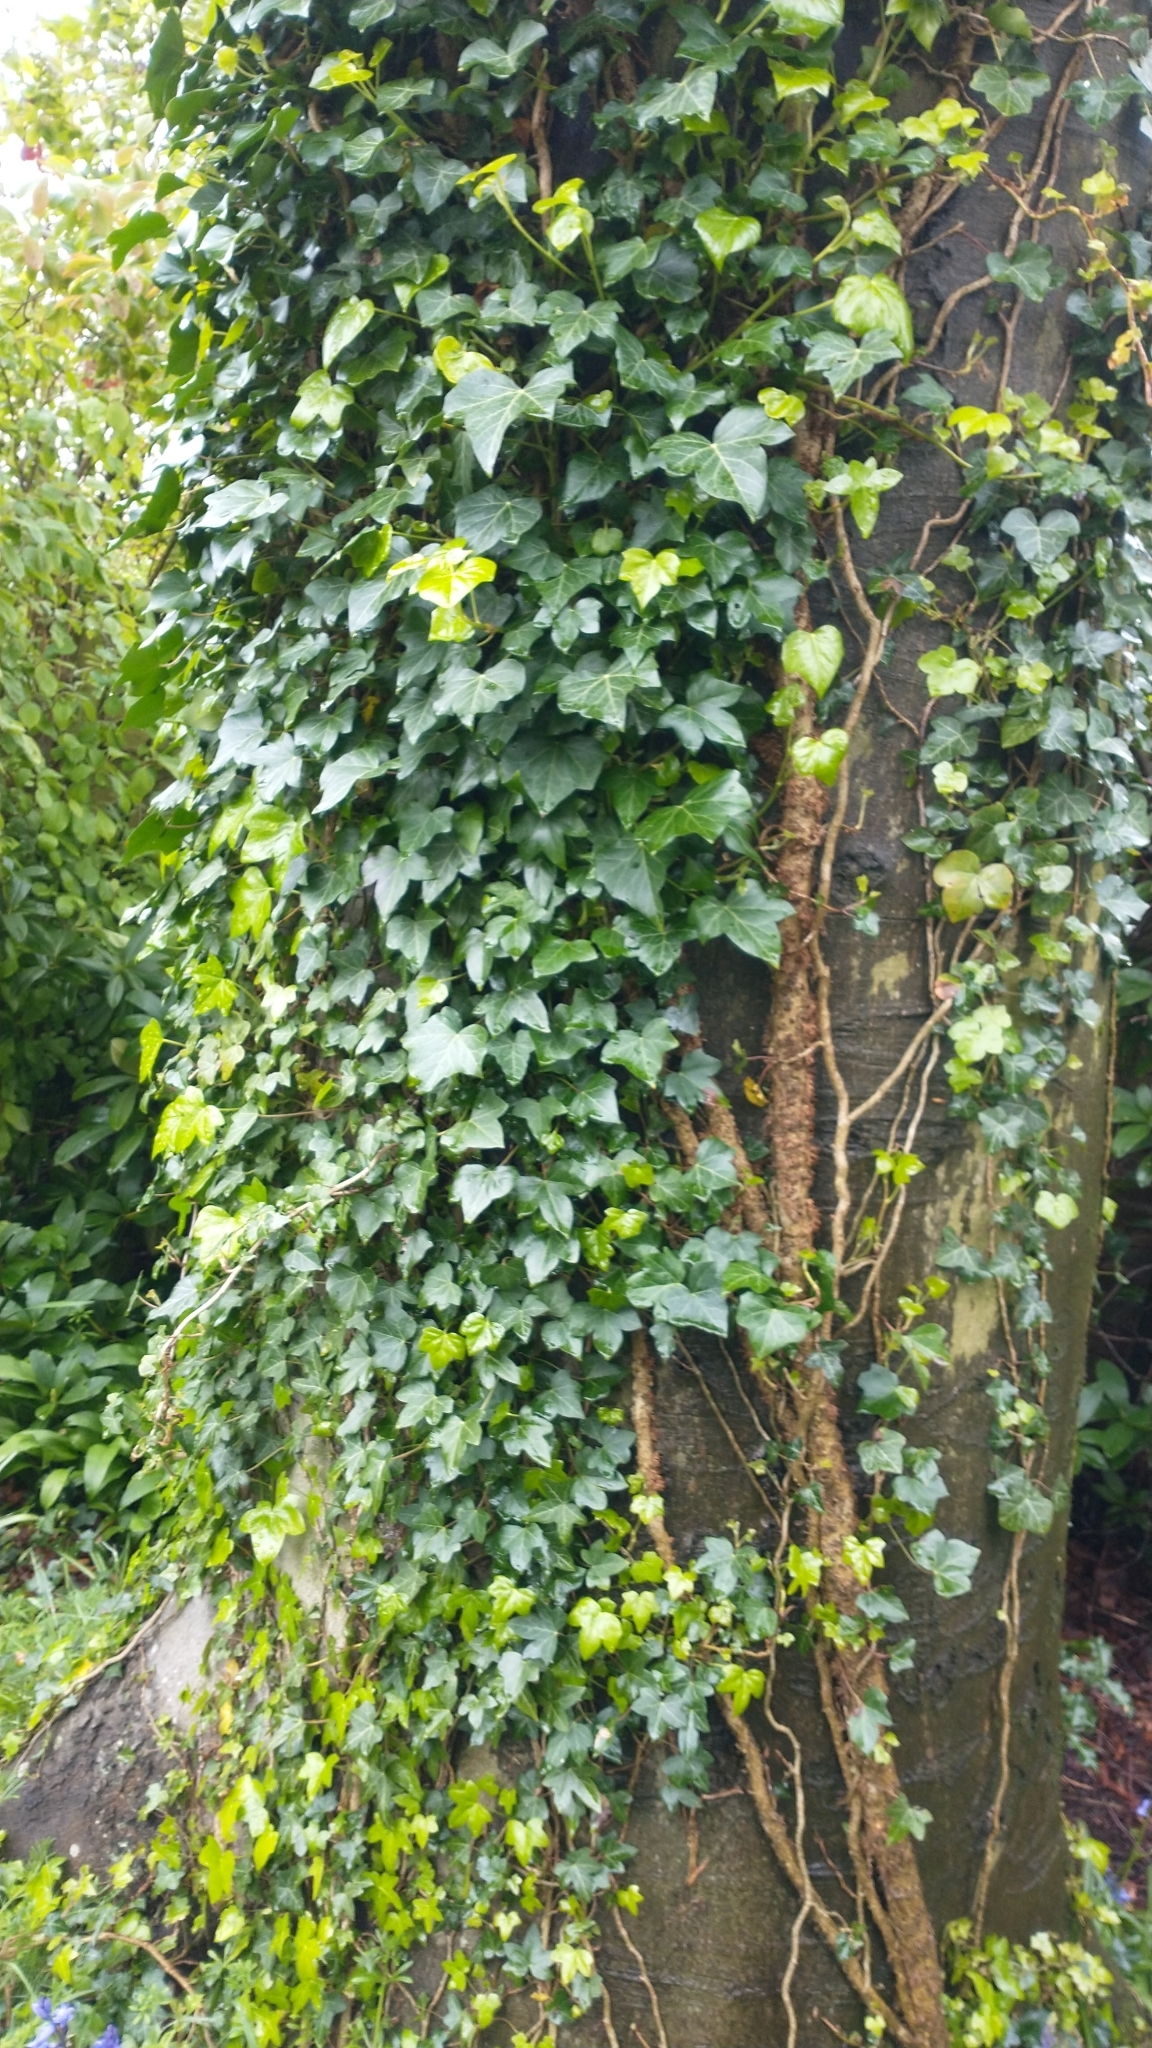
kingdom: Plantae
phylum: Tracheophyta
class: Magnoliopsida
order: Apiales
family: Araliaceae
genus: Hedera
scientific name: Hedera helix
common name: Ivy
